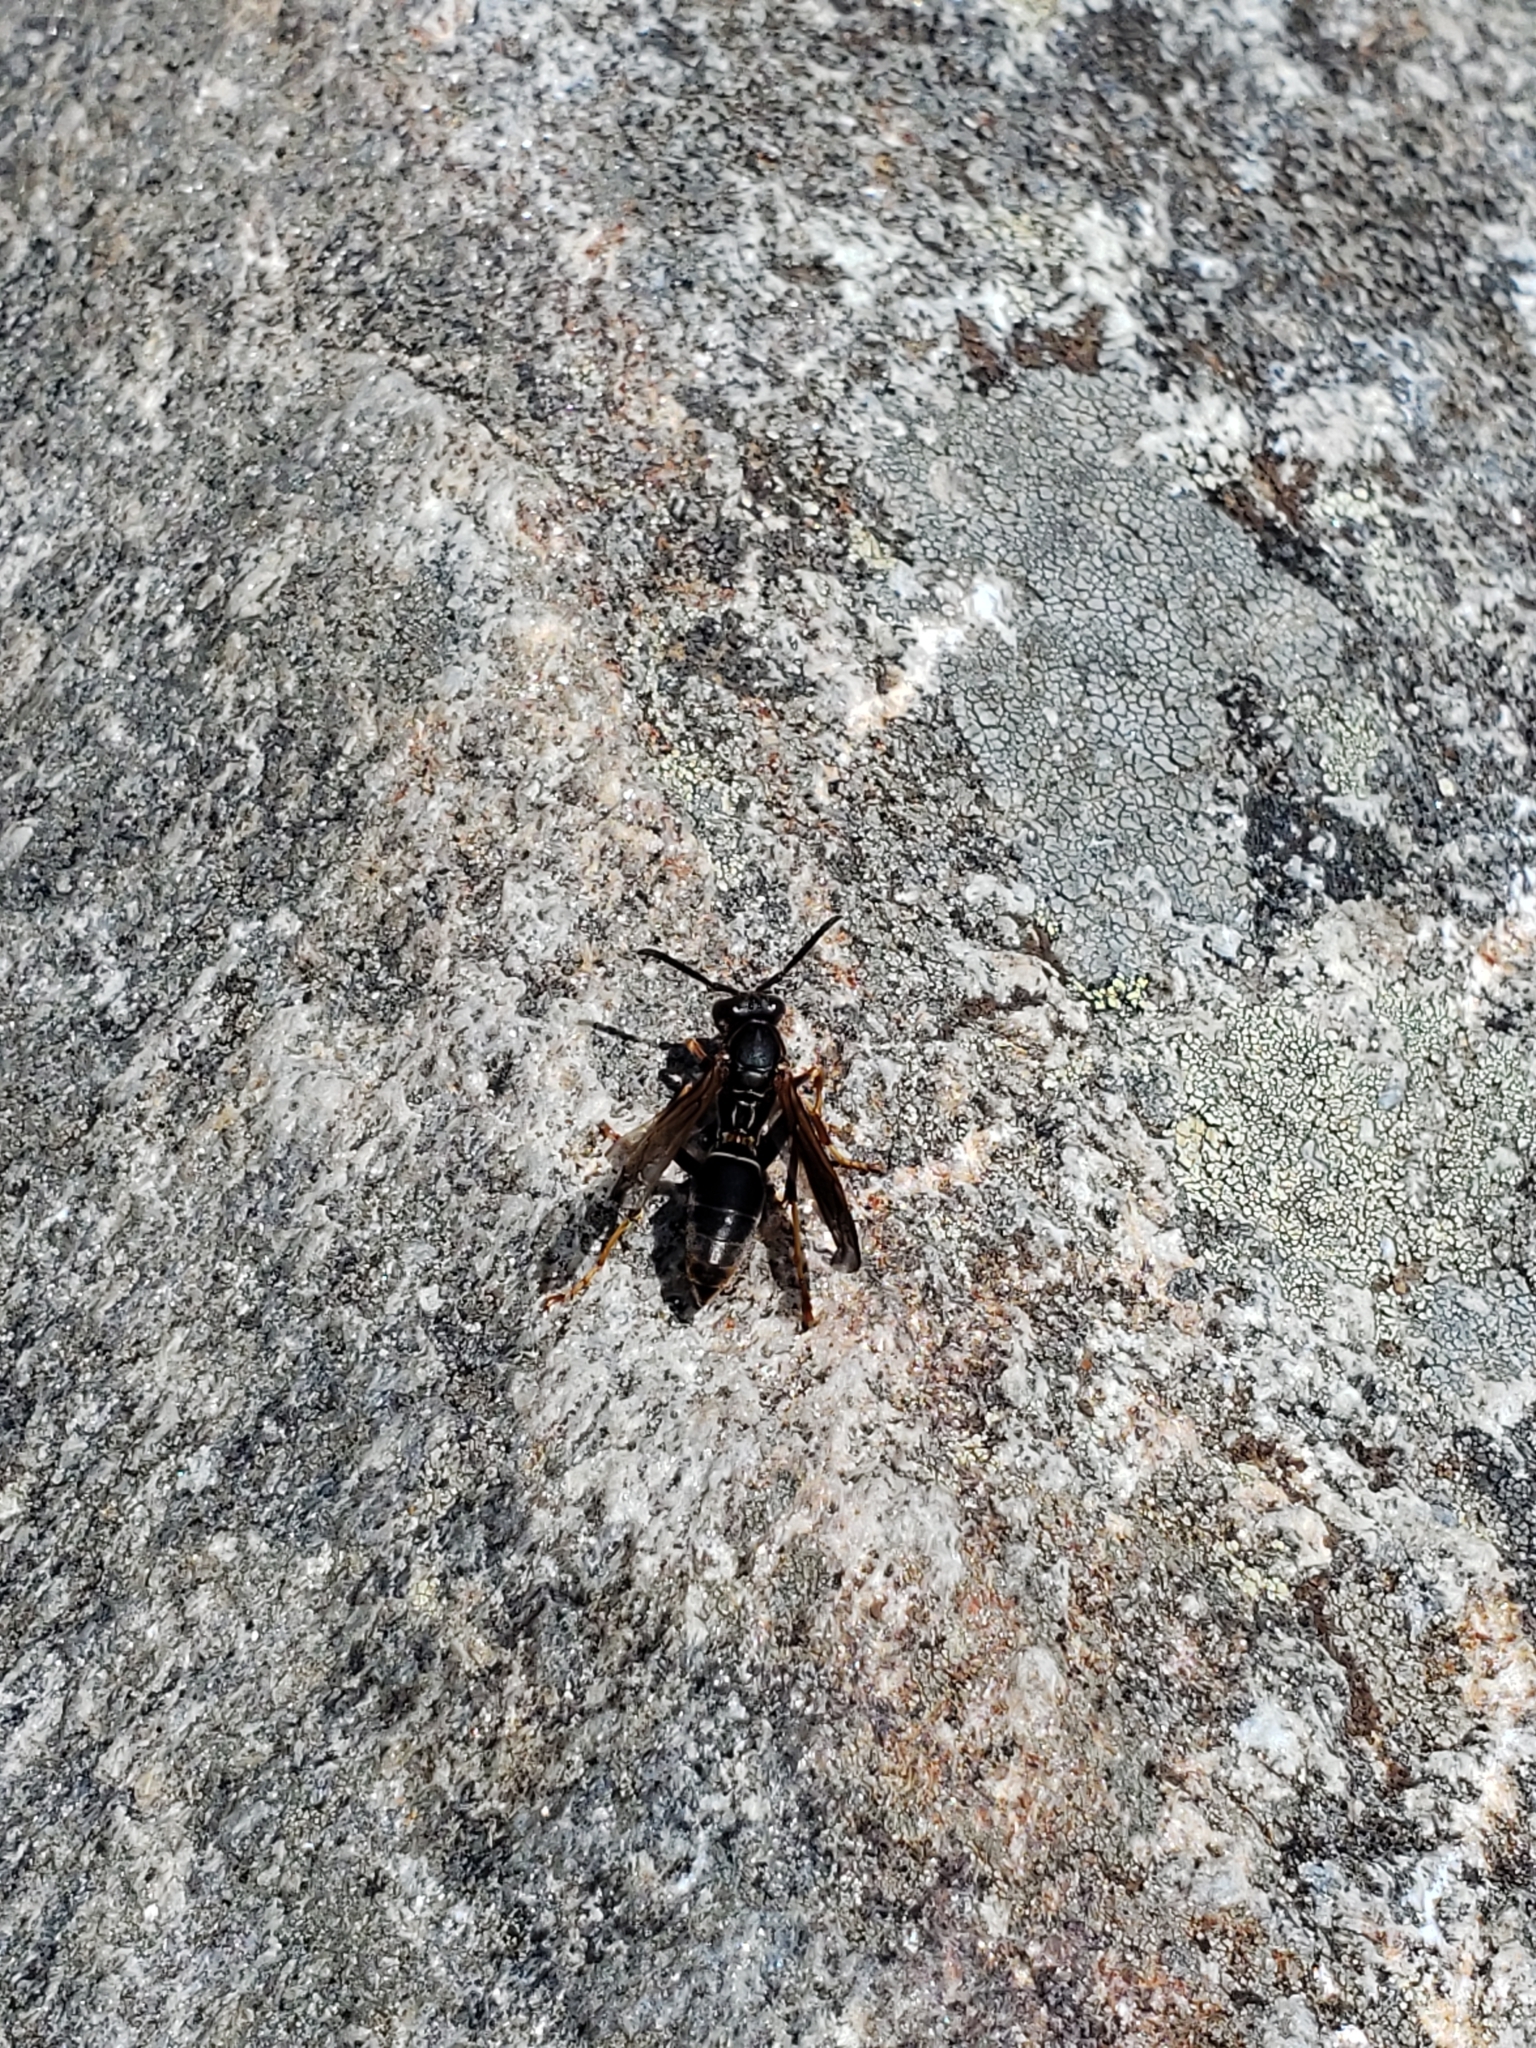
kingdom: Animalia
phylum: Arthropoda
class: Insecta
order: Hymenoptera
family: Eumenidae
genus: Polistes
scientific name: Polistes fuscatus
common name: Dark paper wasp
